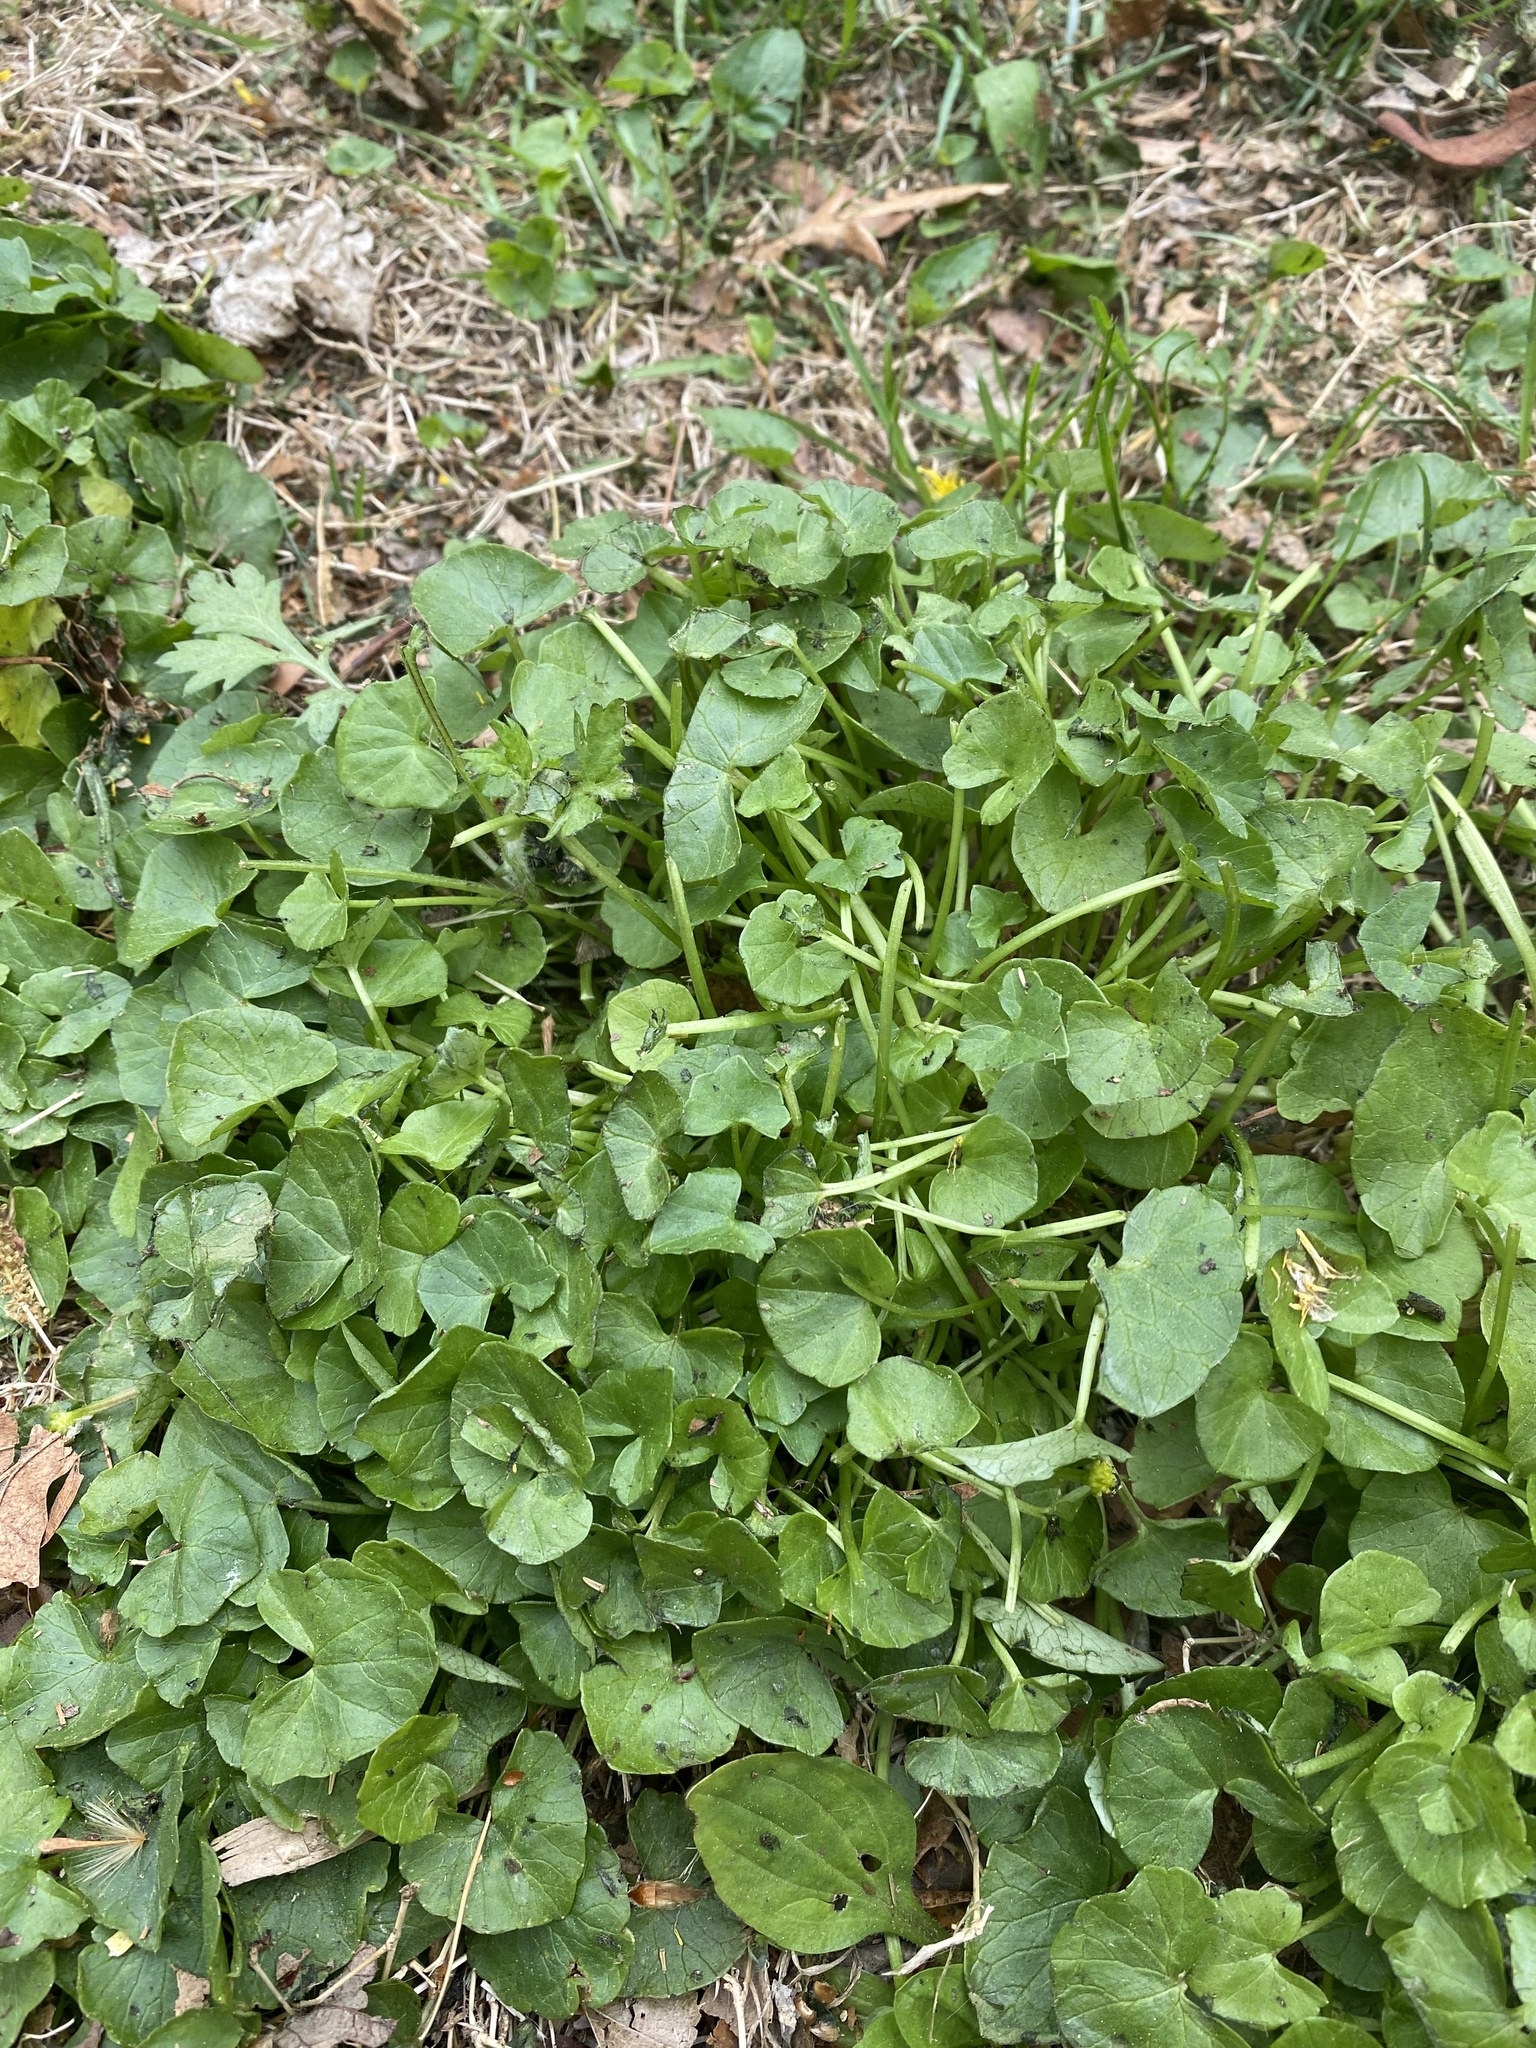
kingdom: Plantae
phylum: Tracheophyta
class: Magnoliopsida
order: Ranunculales
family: Ranunculaceae
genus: Ficaria
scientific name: Ficaria verna
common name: Lesser celandine
